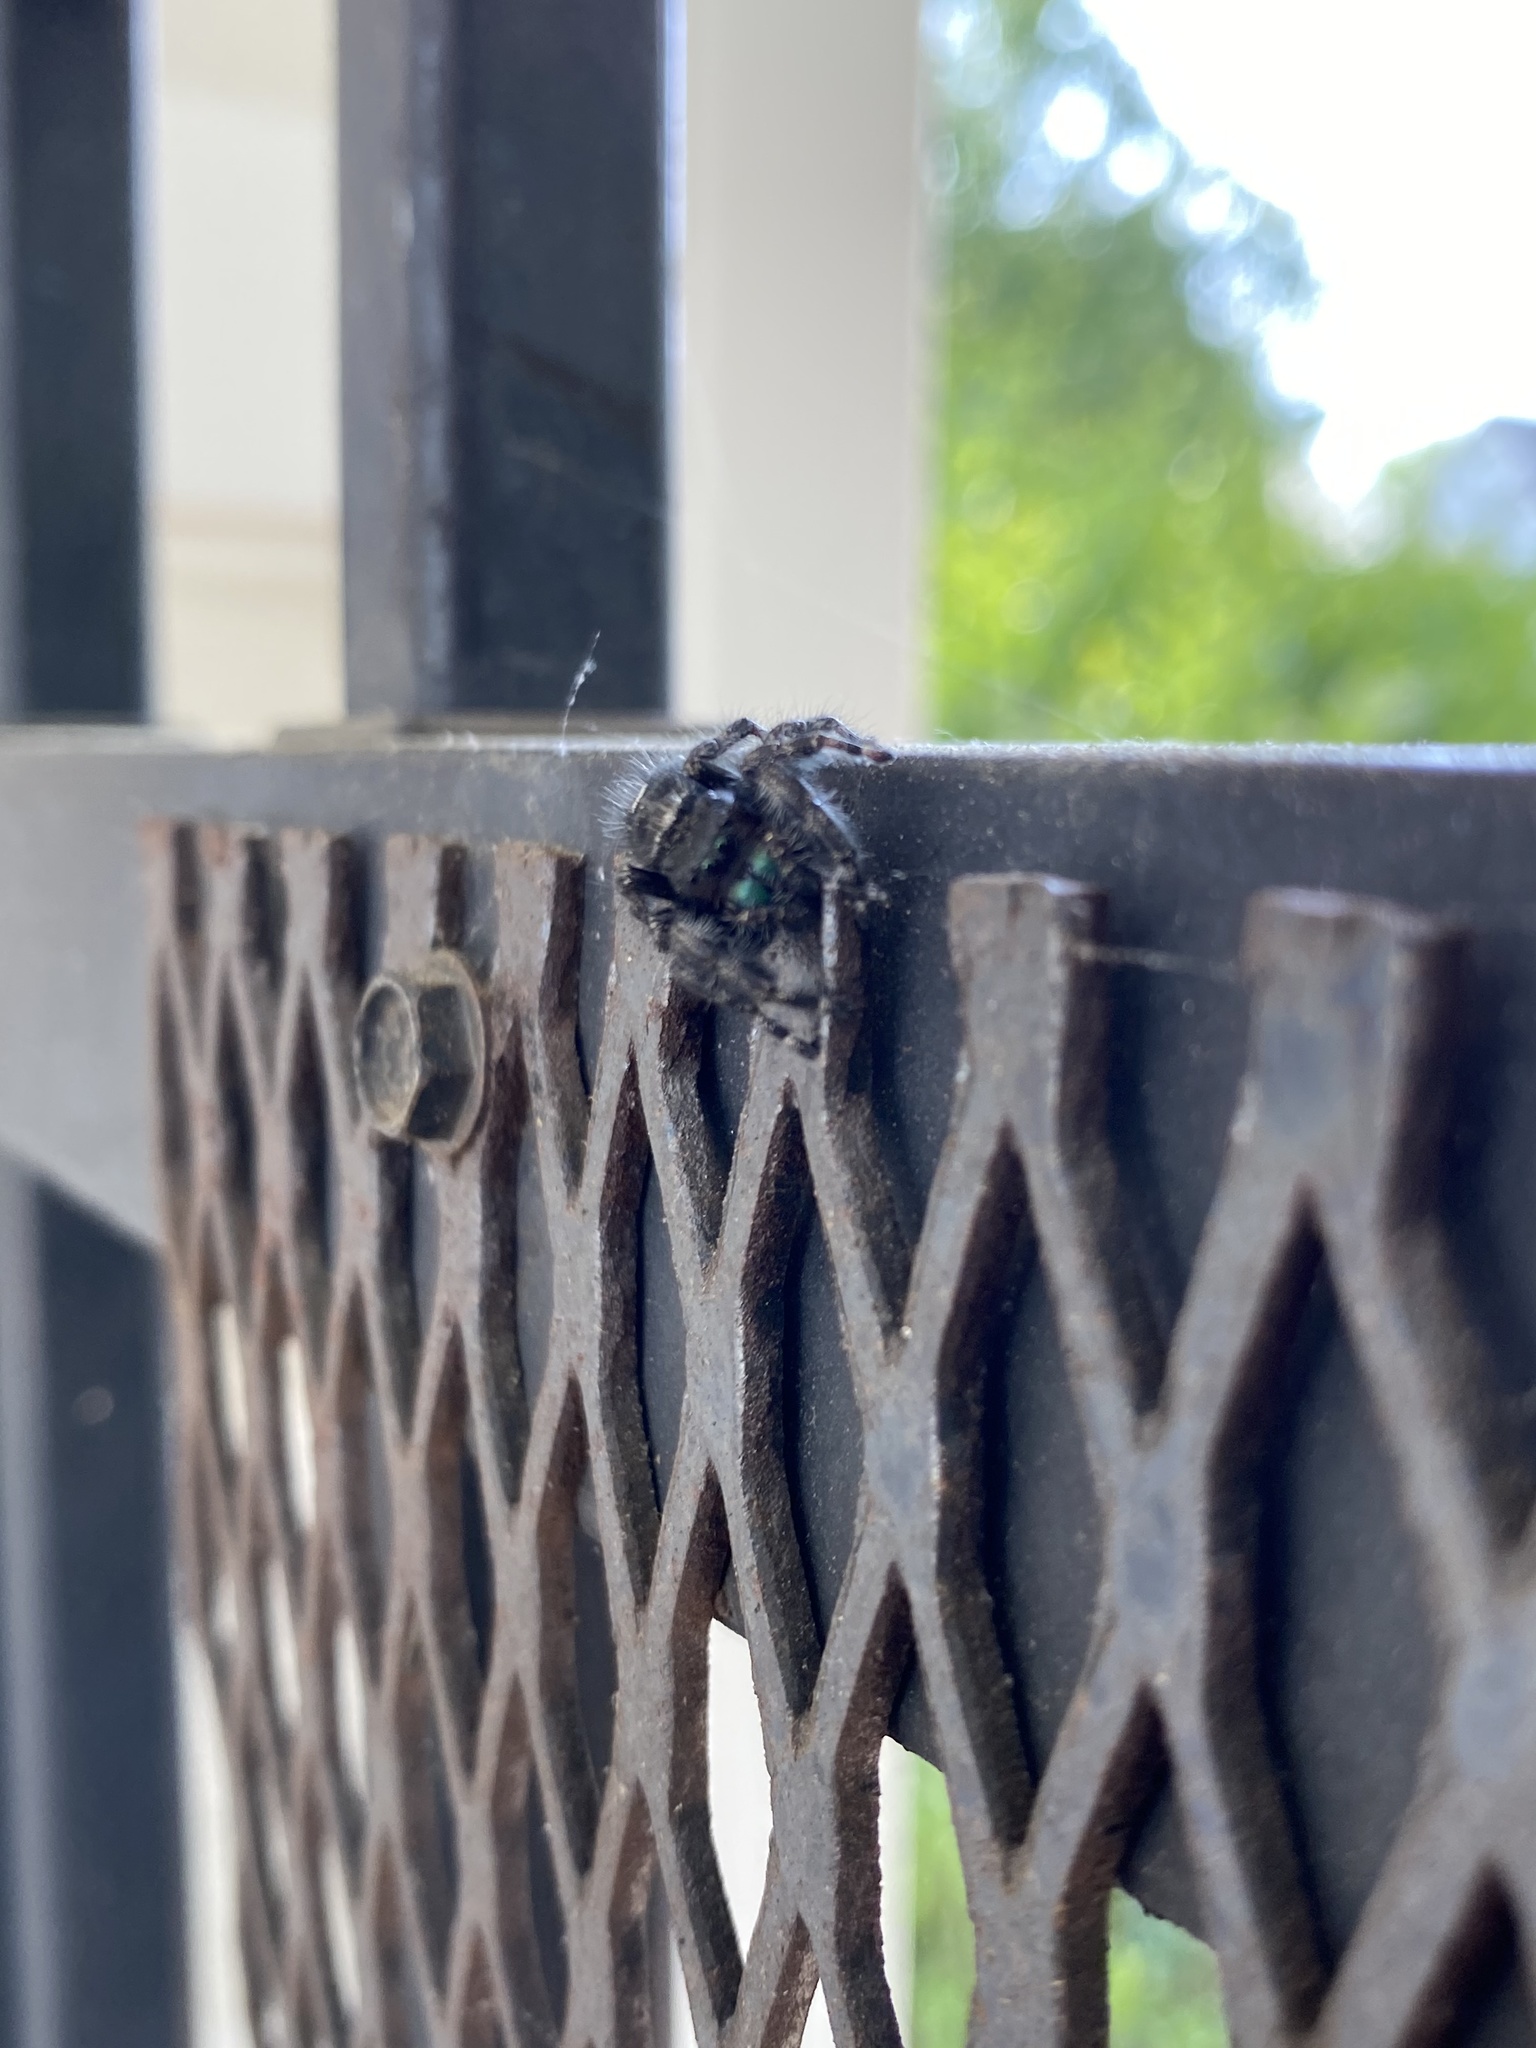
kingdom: Animalia
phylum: Arthropoda
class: Arachnida
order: Araneae
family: Salticidae
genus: Phidippus
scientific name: Phidippus audax
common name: Bold jumper
